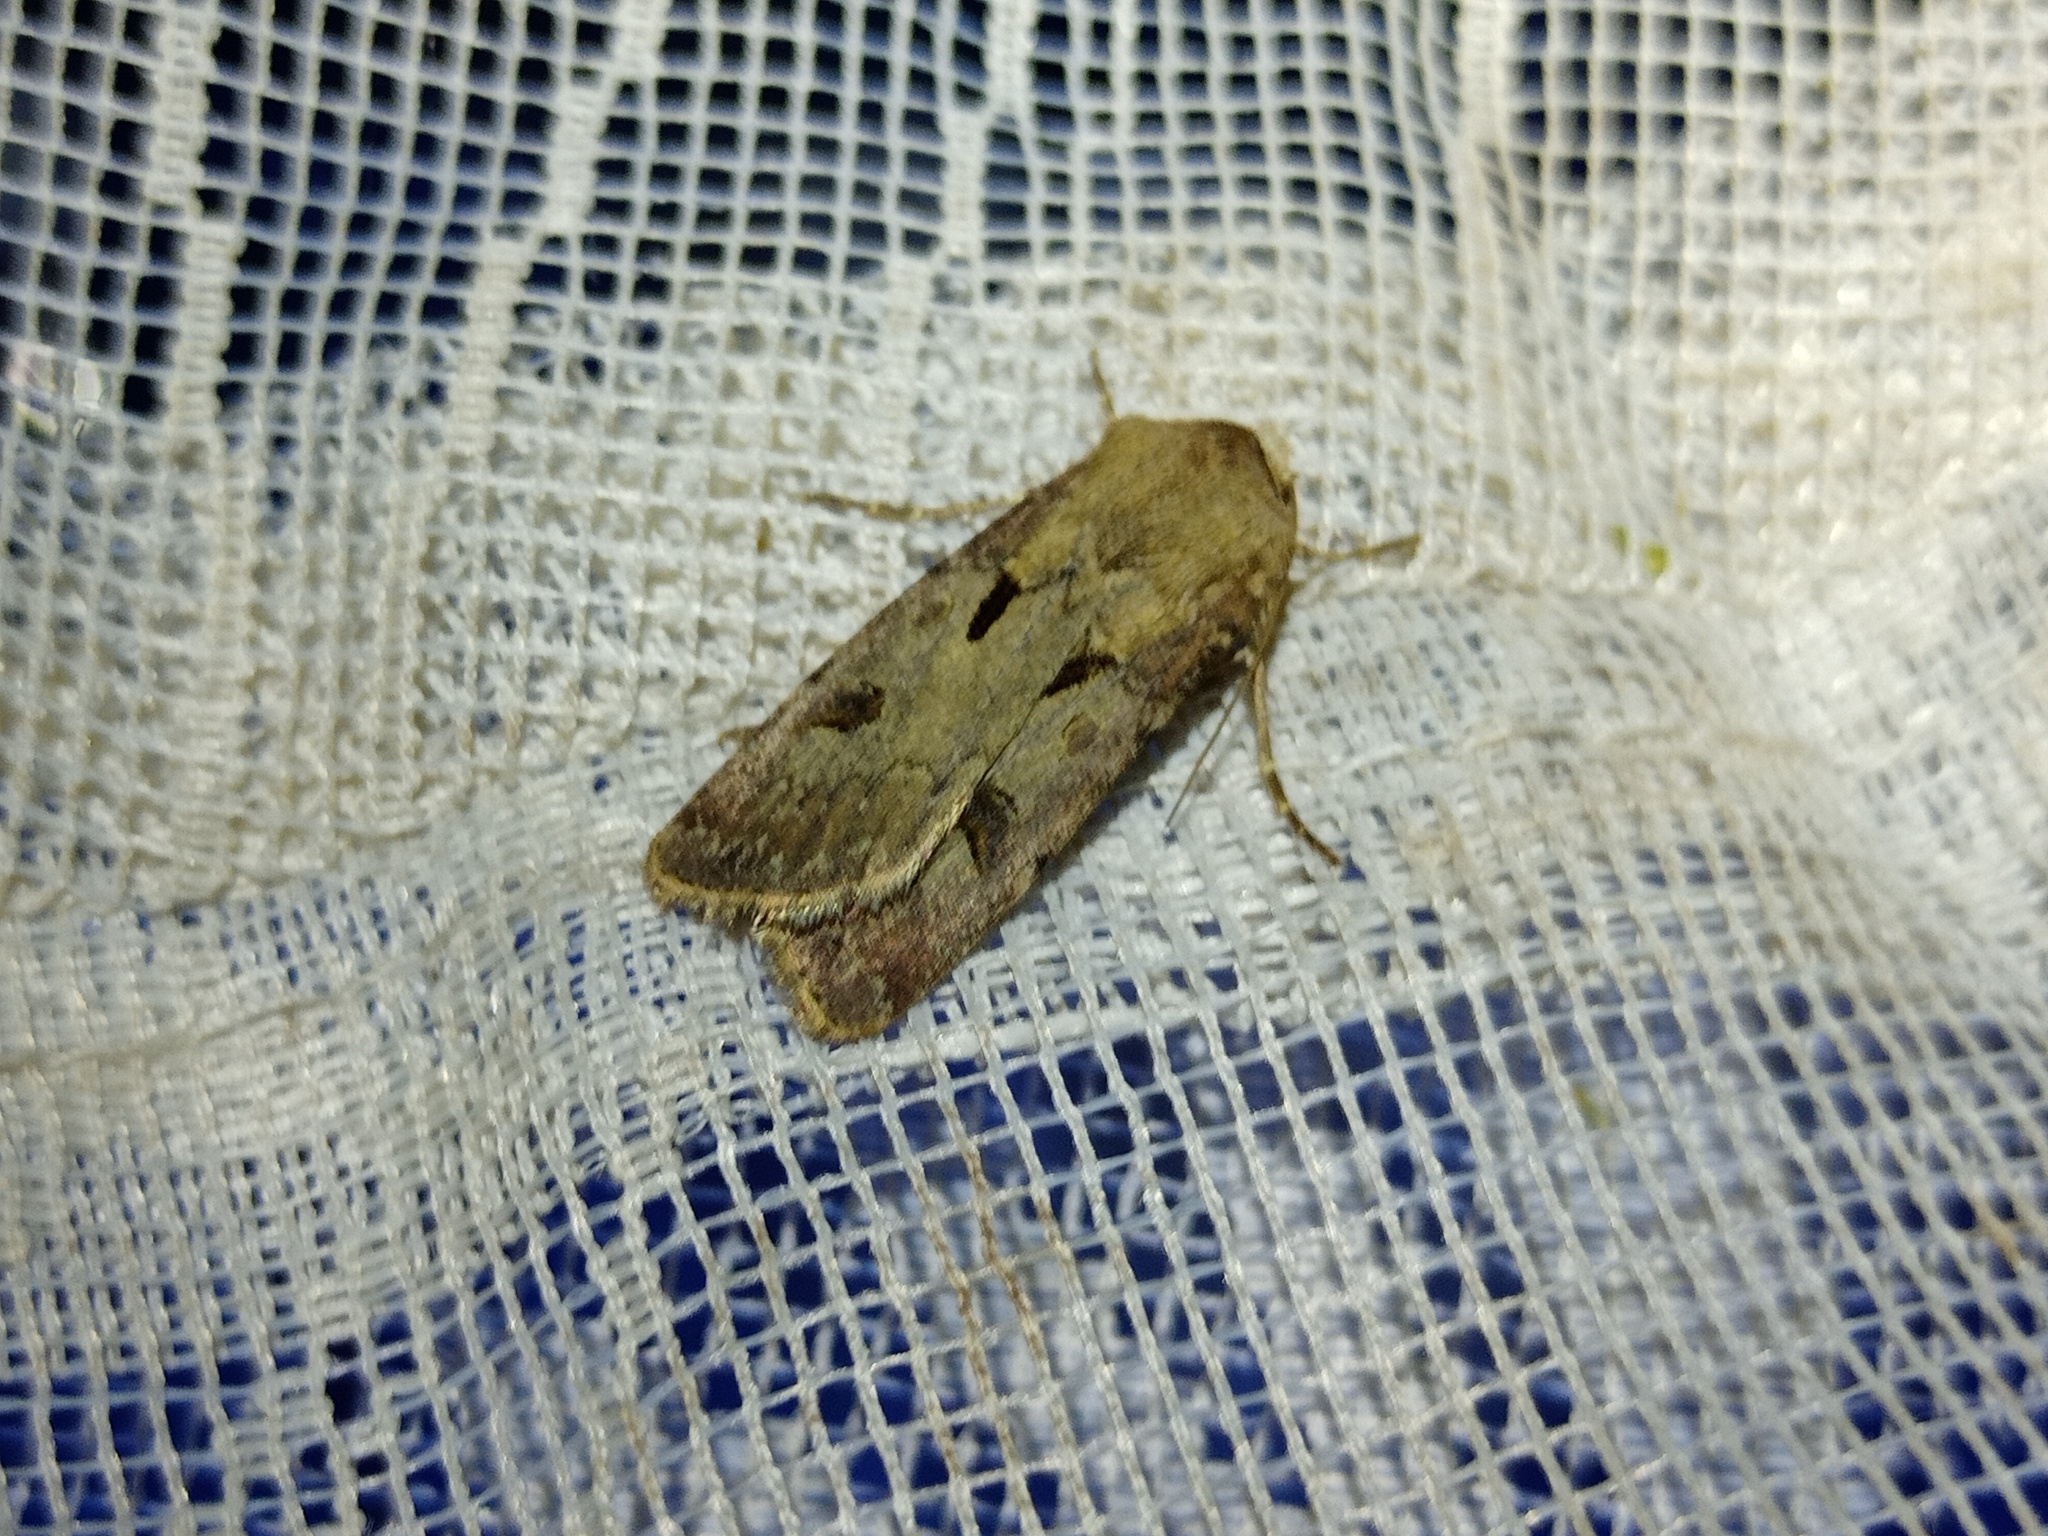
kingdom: Animalia
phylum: Arthropoda
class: Insecta
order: Lepidoptera
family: Noctuidae
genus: Agrotis
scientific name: Agrotis exclamationis
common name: Heart and dart
